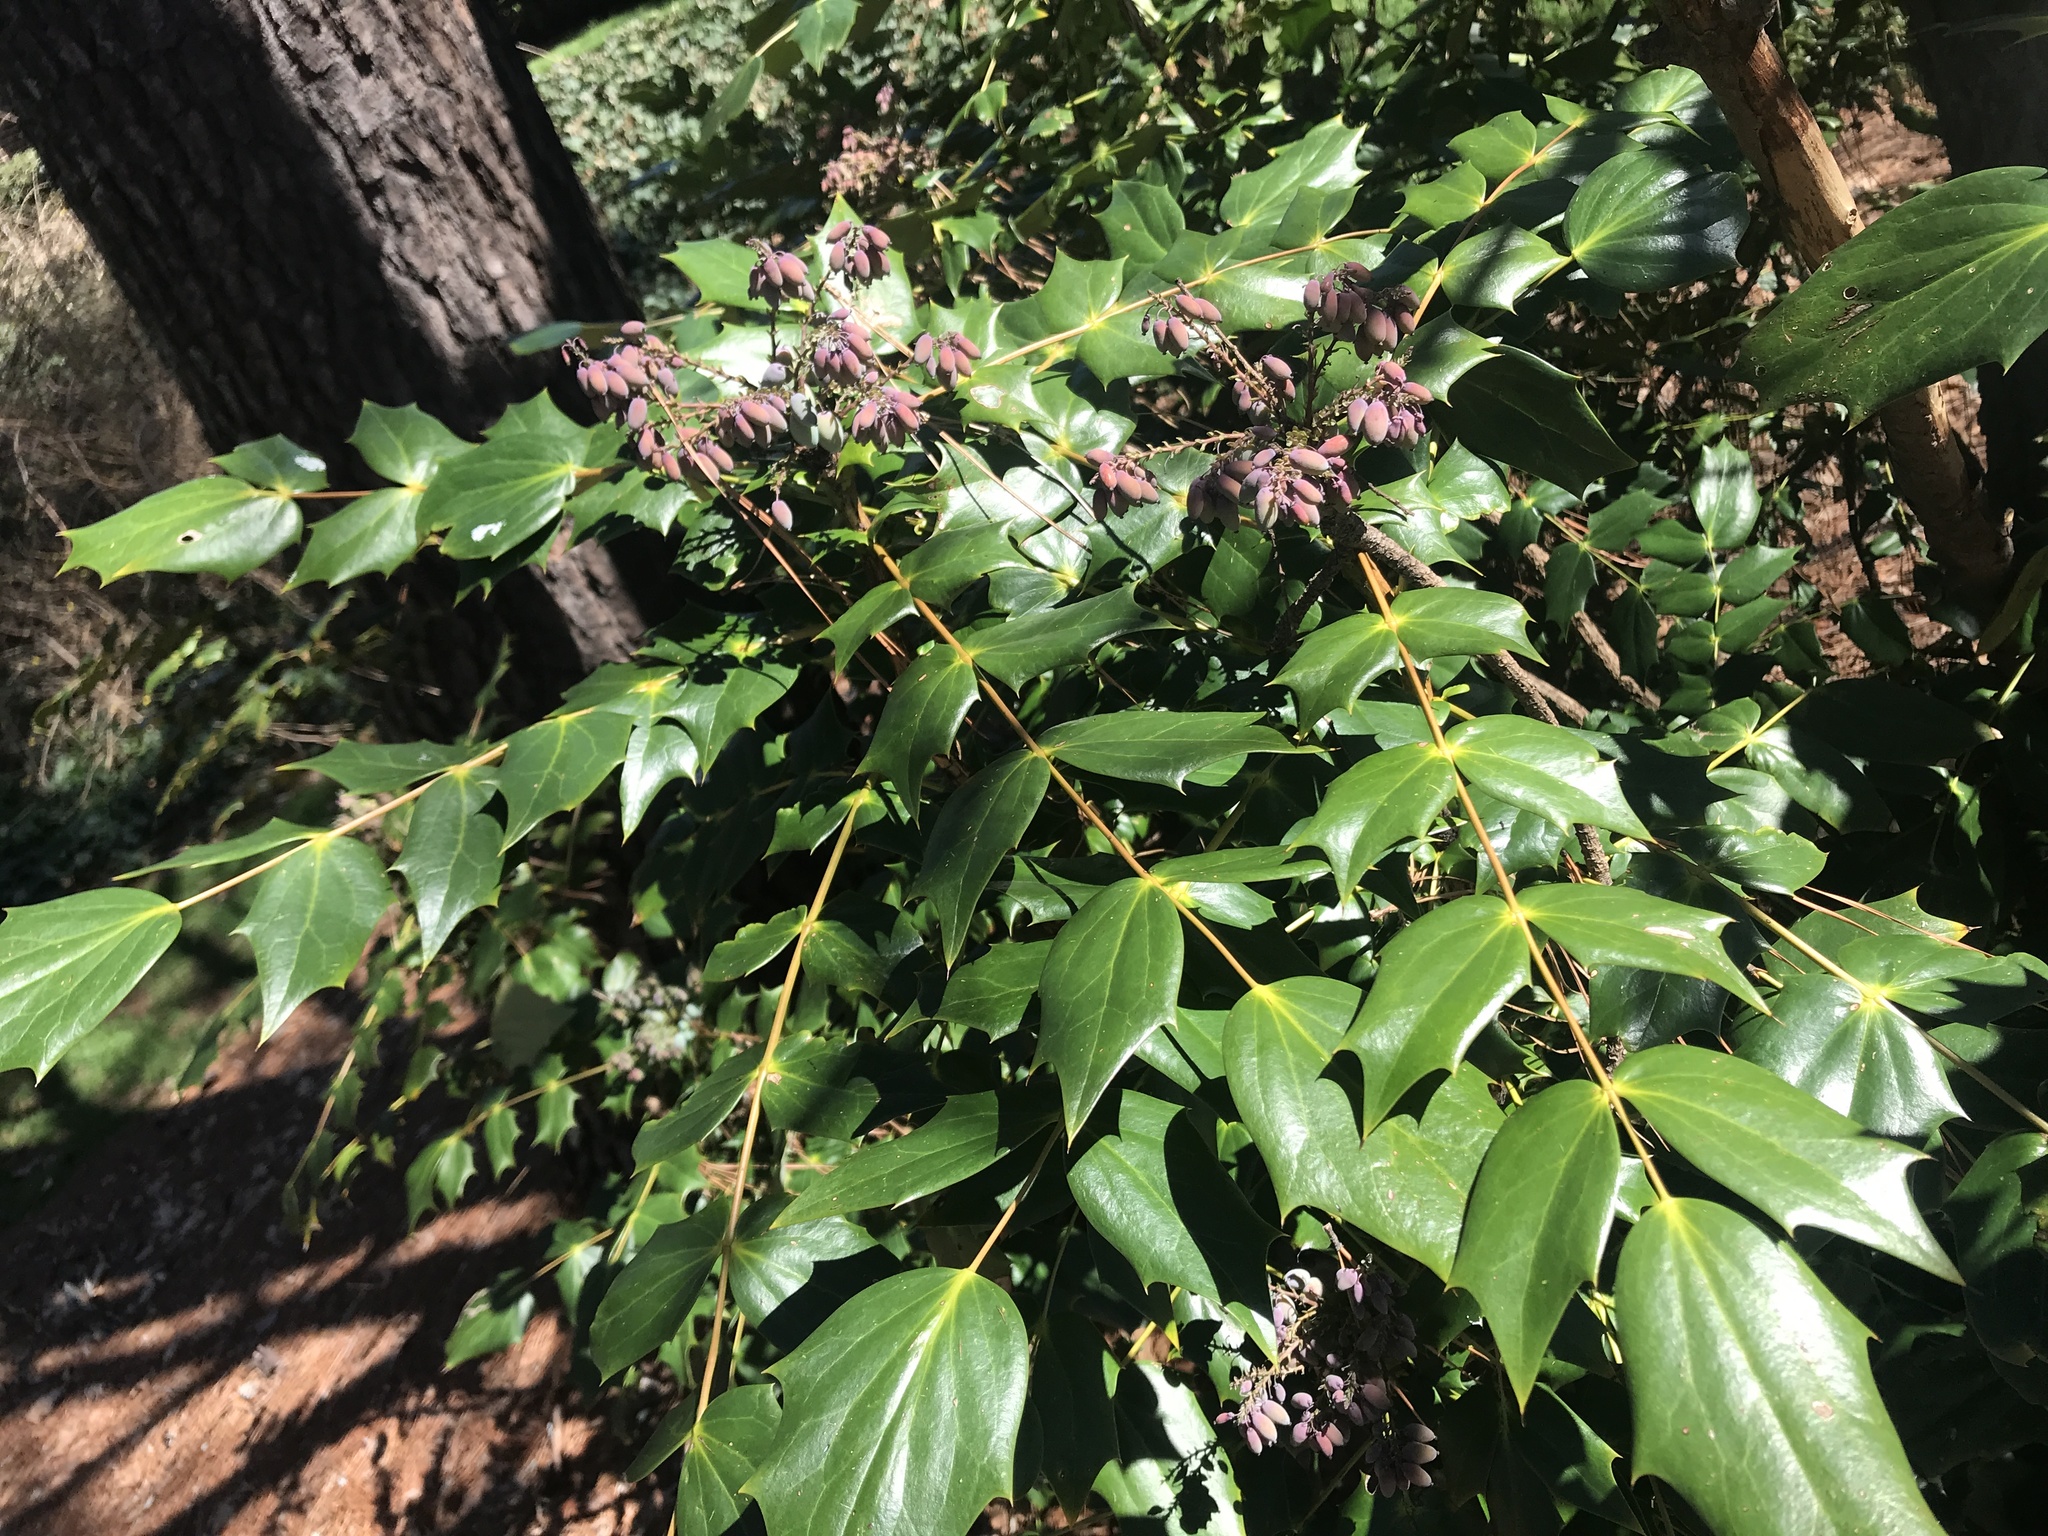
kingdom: Plantae
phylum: Tracheophyta
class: Magnoliopsida
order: Ranunculales
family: Berberidaceae
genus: Mahonia
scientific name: Mahonia bealei
